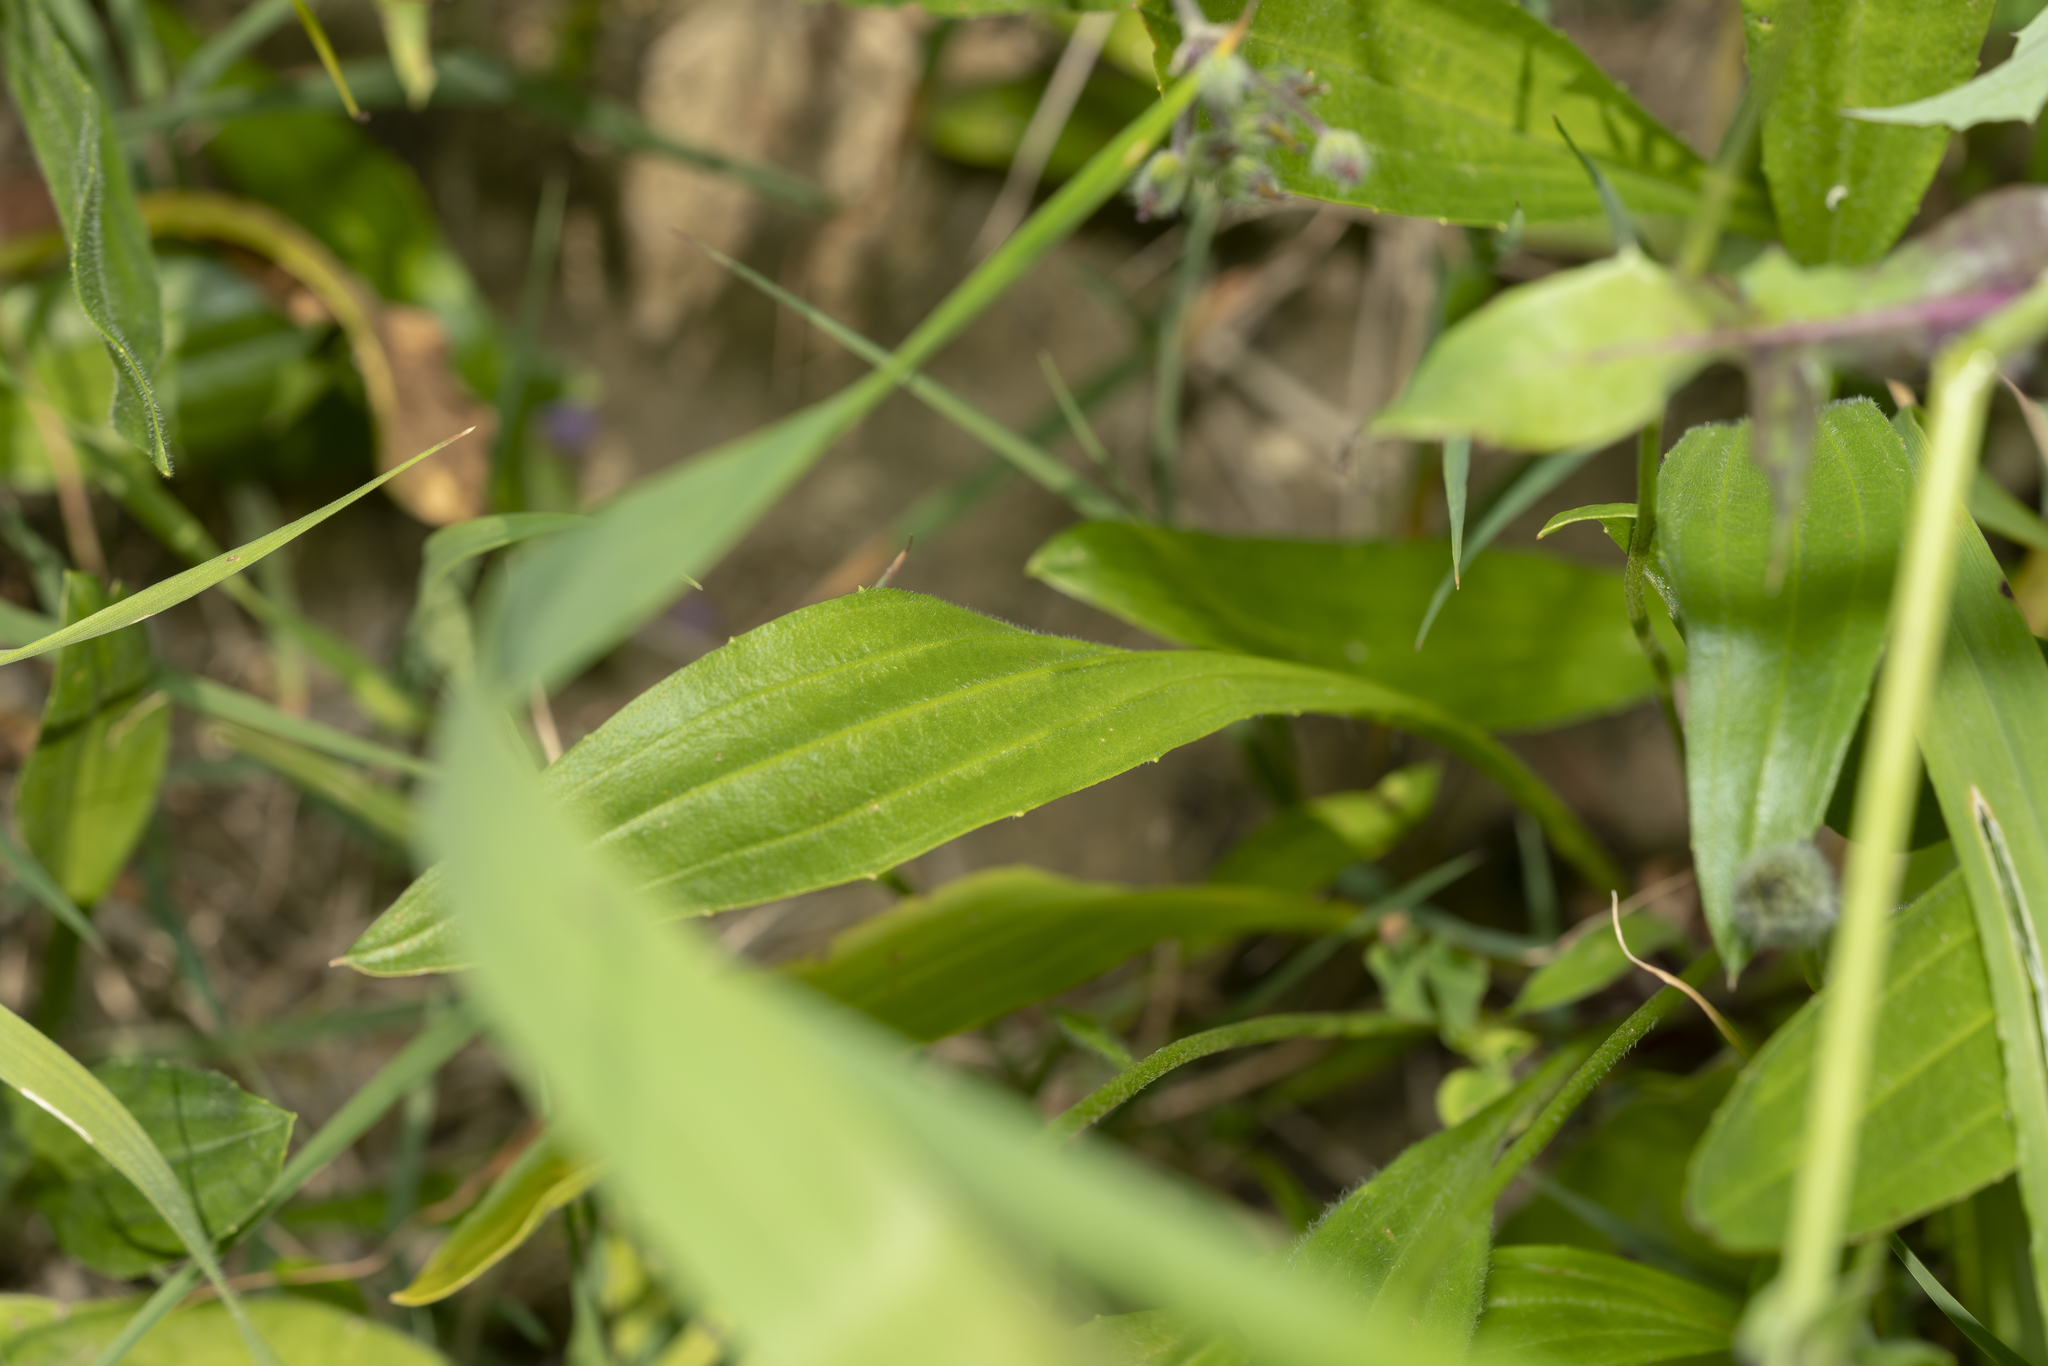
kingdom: Plantae
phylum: Tracheophyta
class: Magnoliopsida
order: Lamiales
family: Plantaginaceae
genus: Plantago
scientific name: Plantago lagopus
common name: Hare-foot plantain
